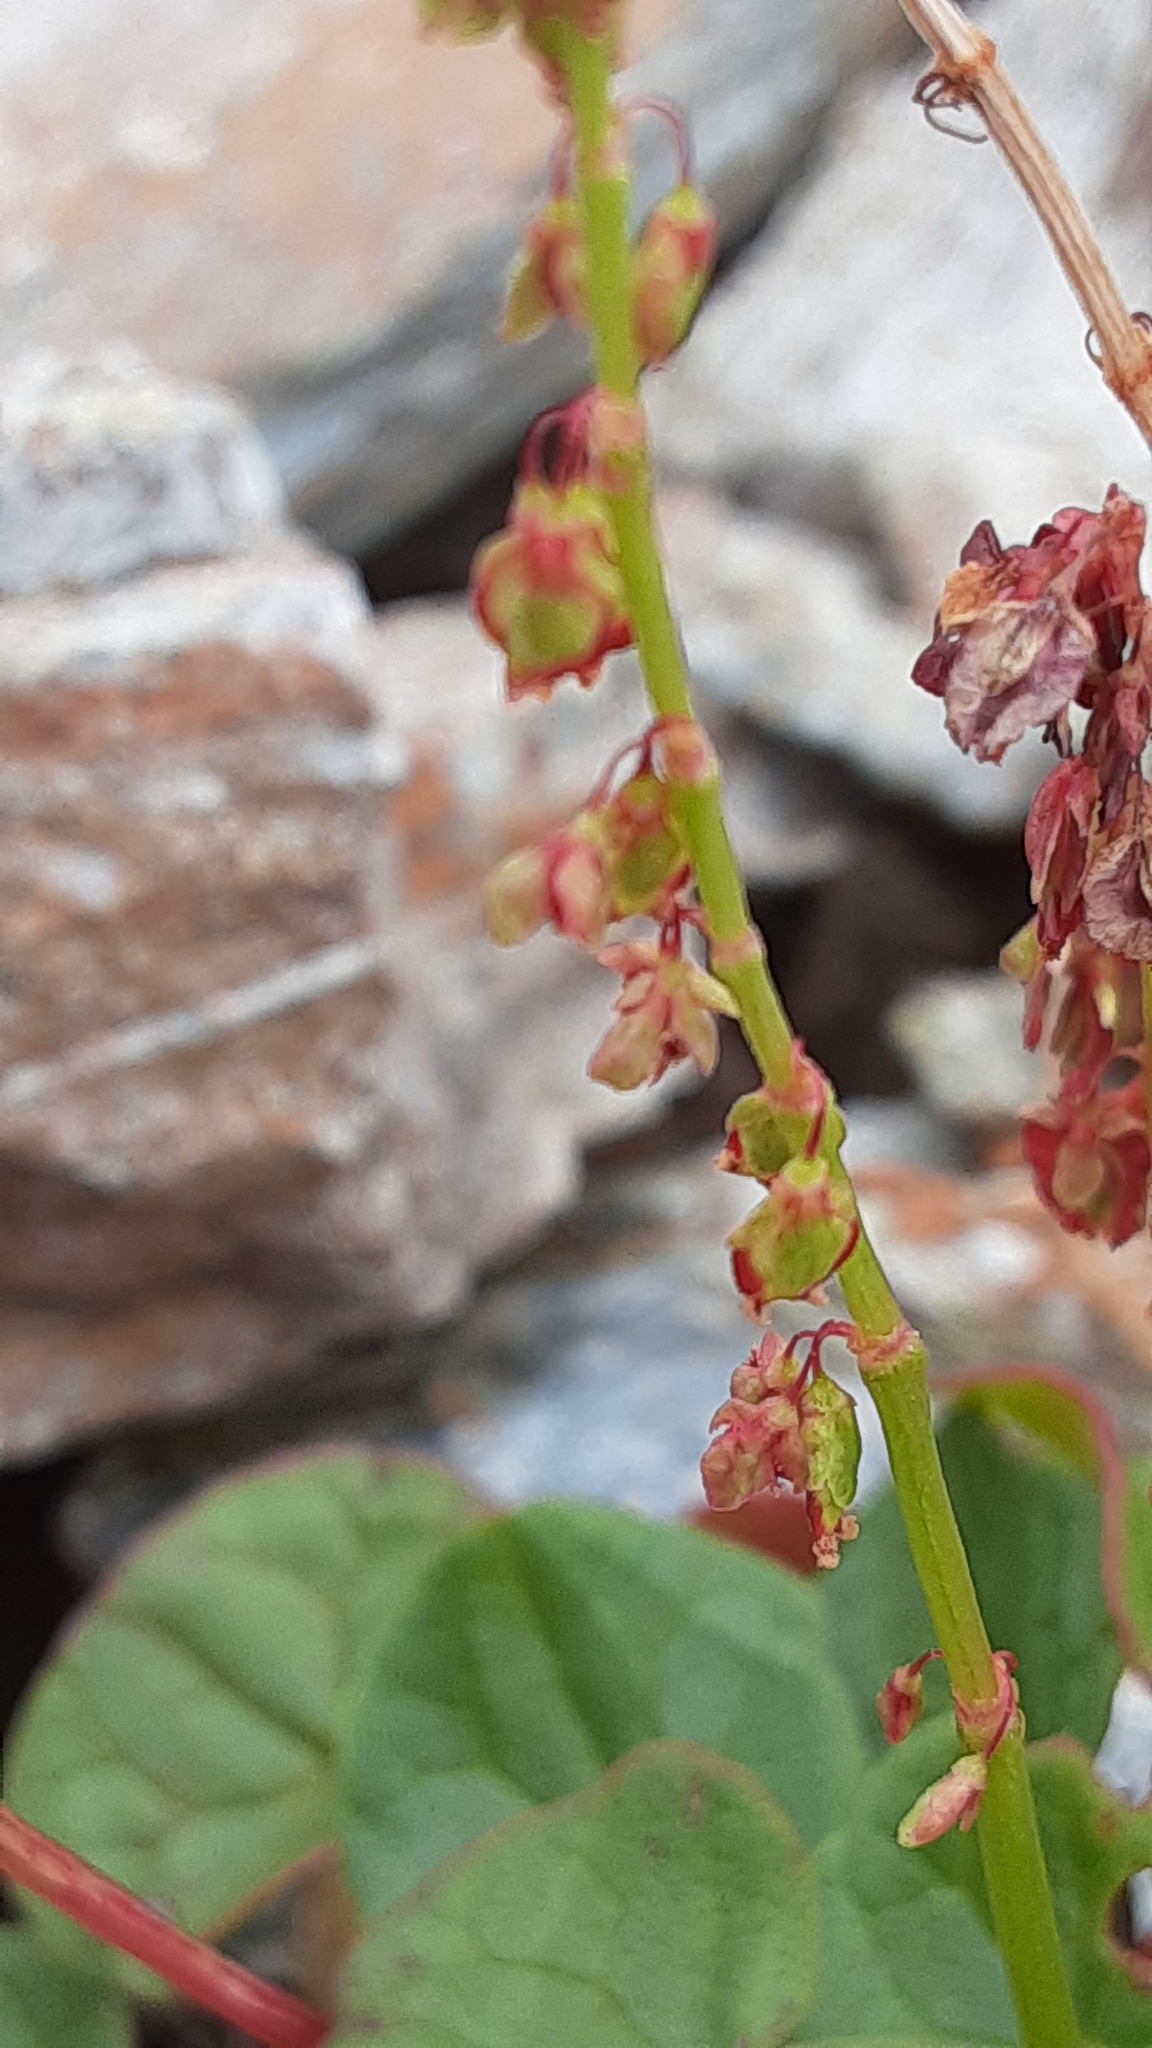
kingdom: Plantae
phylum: Tracheophyta
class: Magnoliopsida
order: Caryophyllales
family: Polygonaceae
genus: Oxyria
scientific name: Oxyria digyna
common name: Alpine mountain-sorrel
